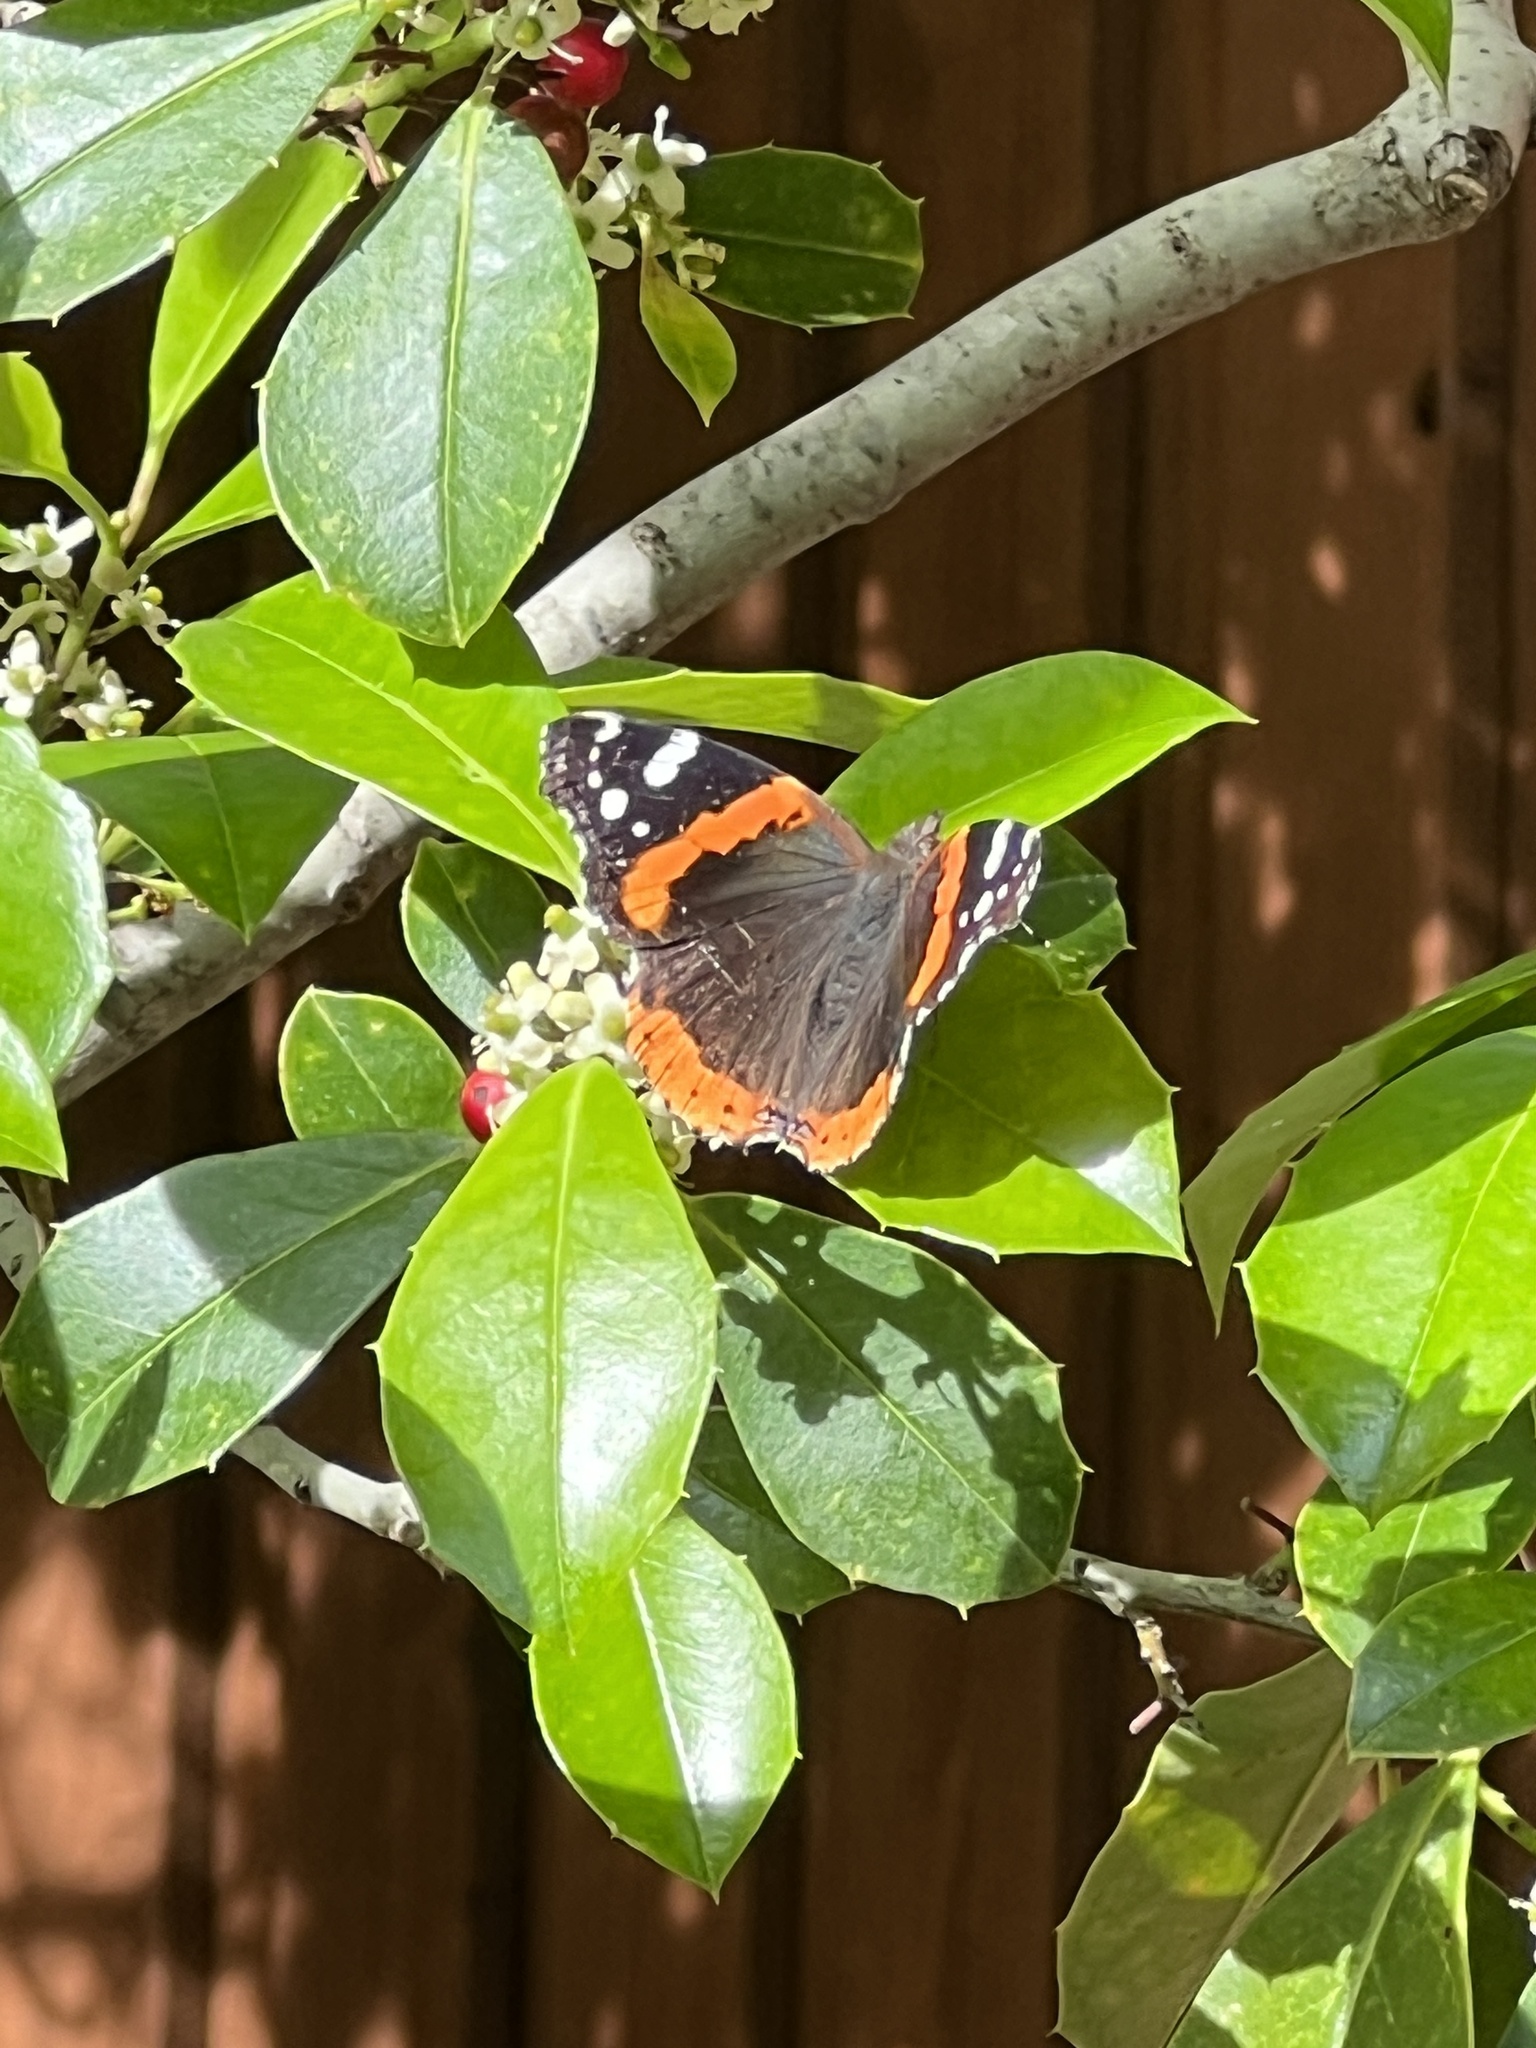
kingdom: Animalia
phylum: Arthropoda
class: Insecta
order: Lepidoptera
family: Nymphalidae
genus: Vanessa
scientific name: Vanessa atalanta
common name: Red admiral
